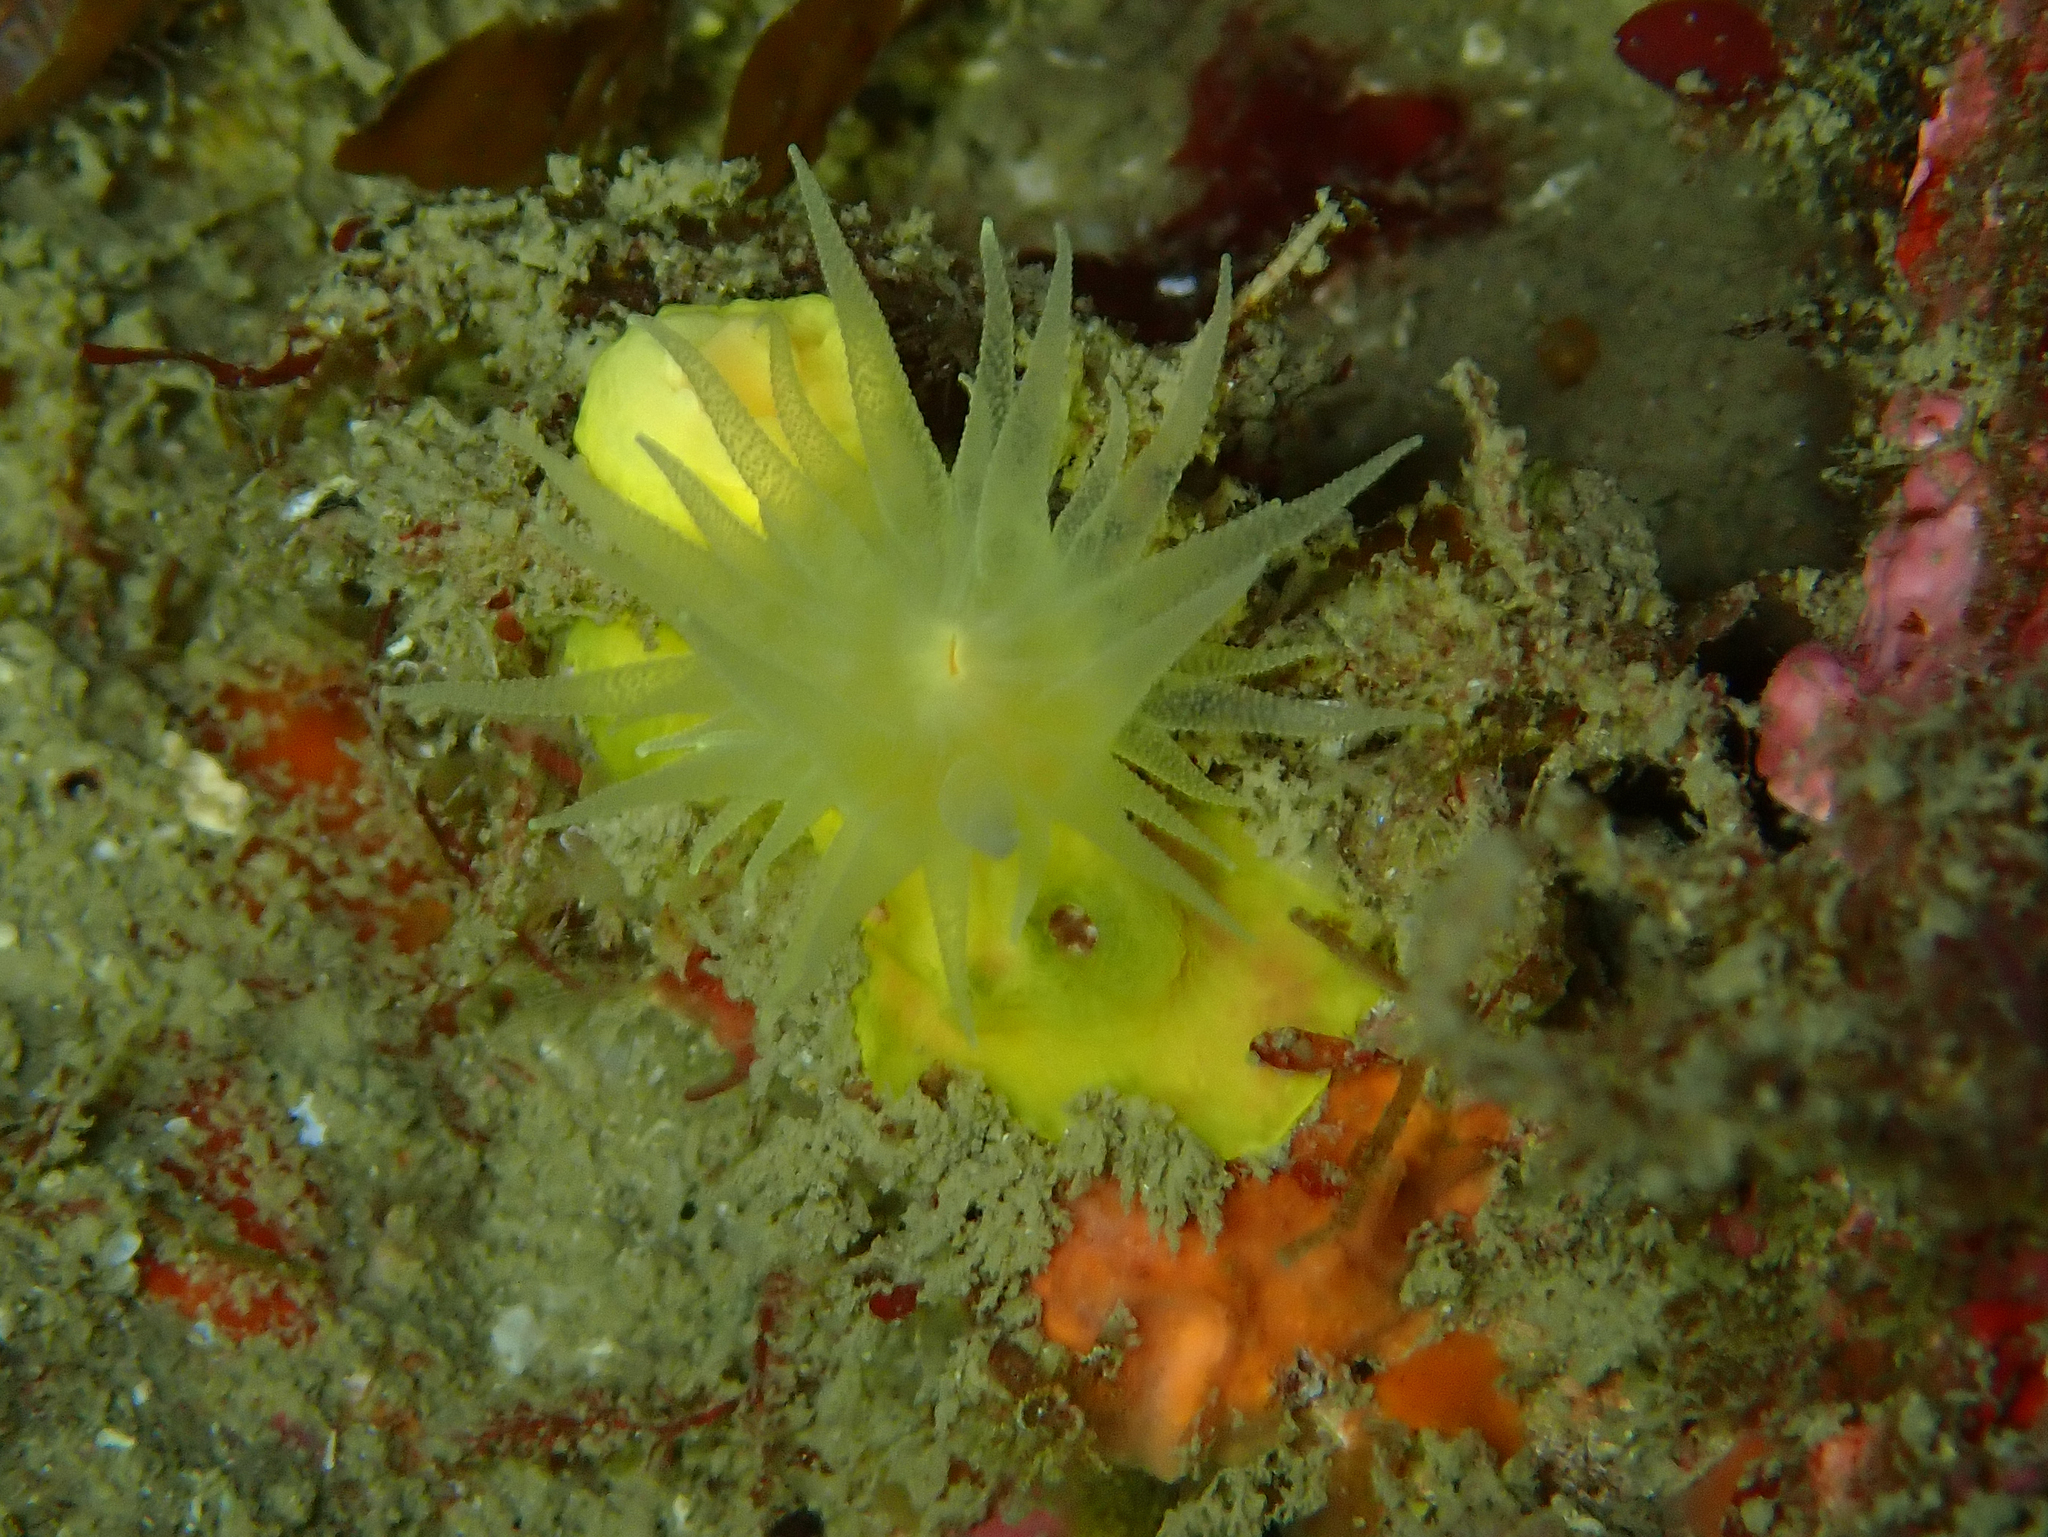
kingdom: Animalia
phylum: Cnidaria
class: Anthozoa
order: Scleractinia
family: Dendrophylliidae
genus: Leptopsammia
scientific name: Leptopsammia pruvoti
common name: Sunset cup coral
